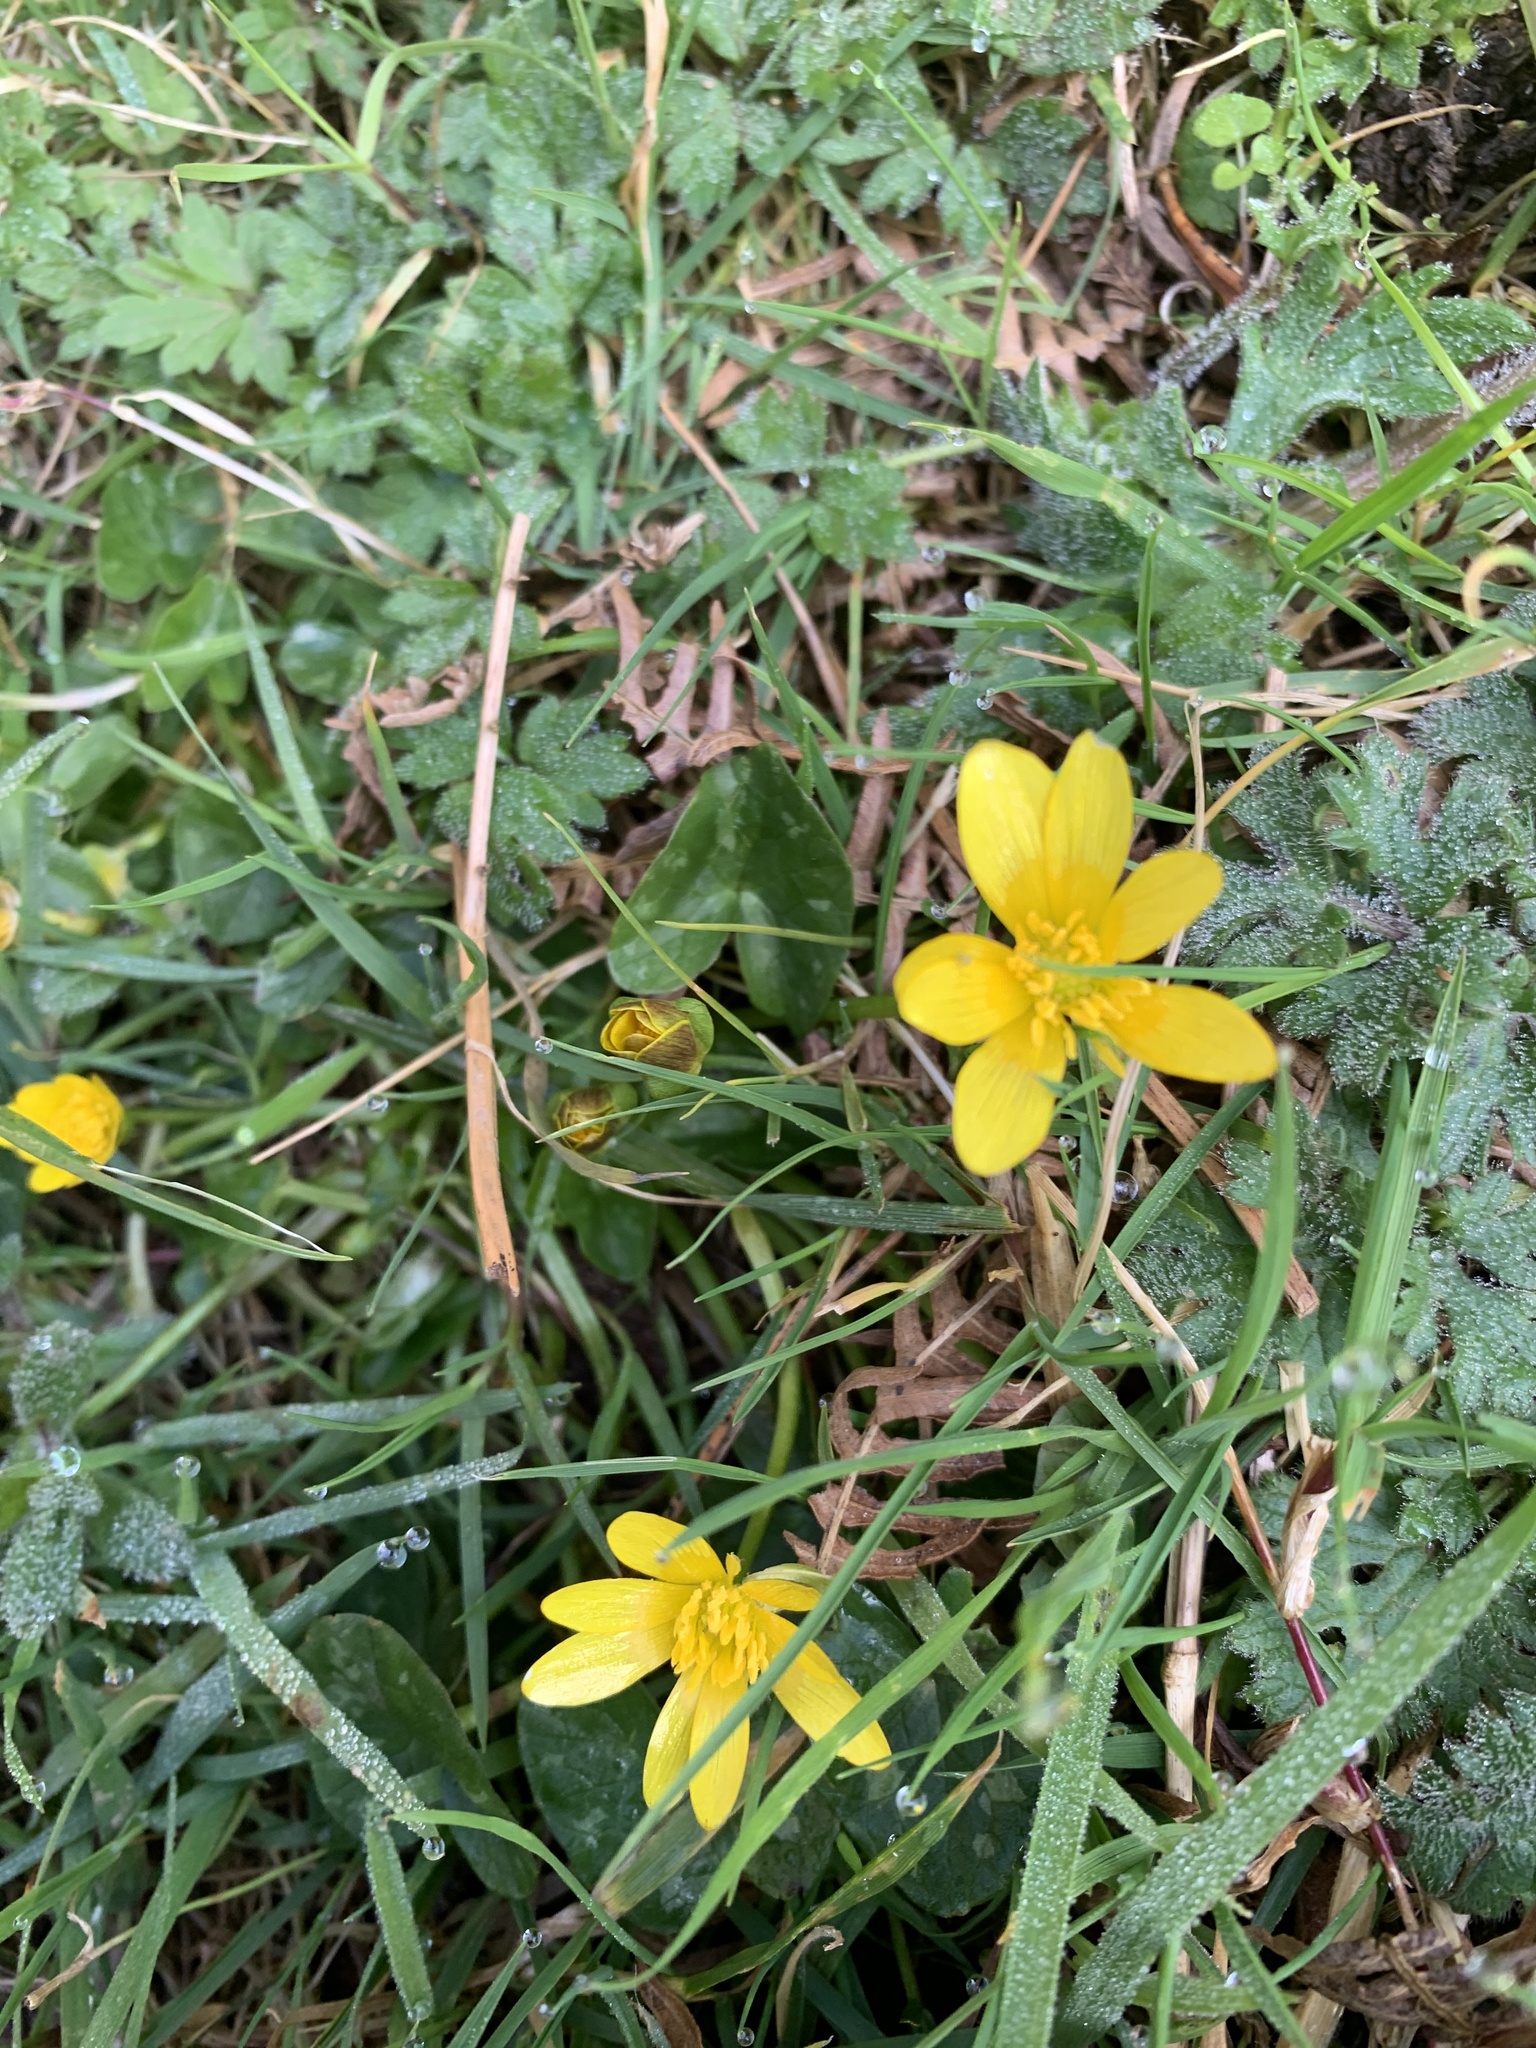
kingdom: Plantae
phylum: Tracheophyta
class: Magnoliopsida
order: Ranunculales
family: Ranunculaceae
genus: Ficaria
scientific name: Ficaria verna
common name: Lesser celandine
